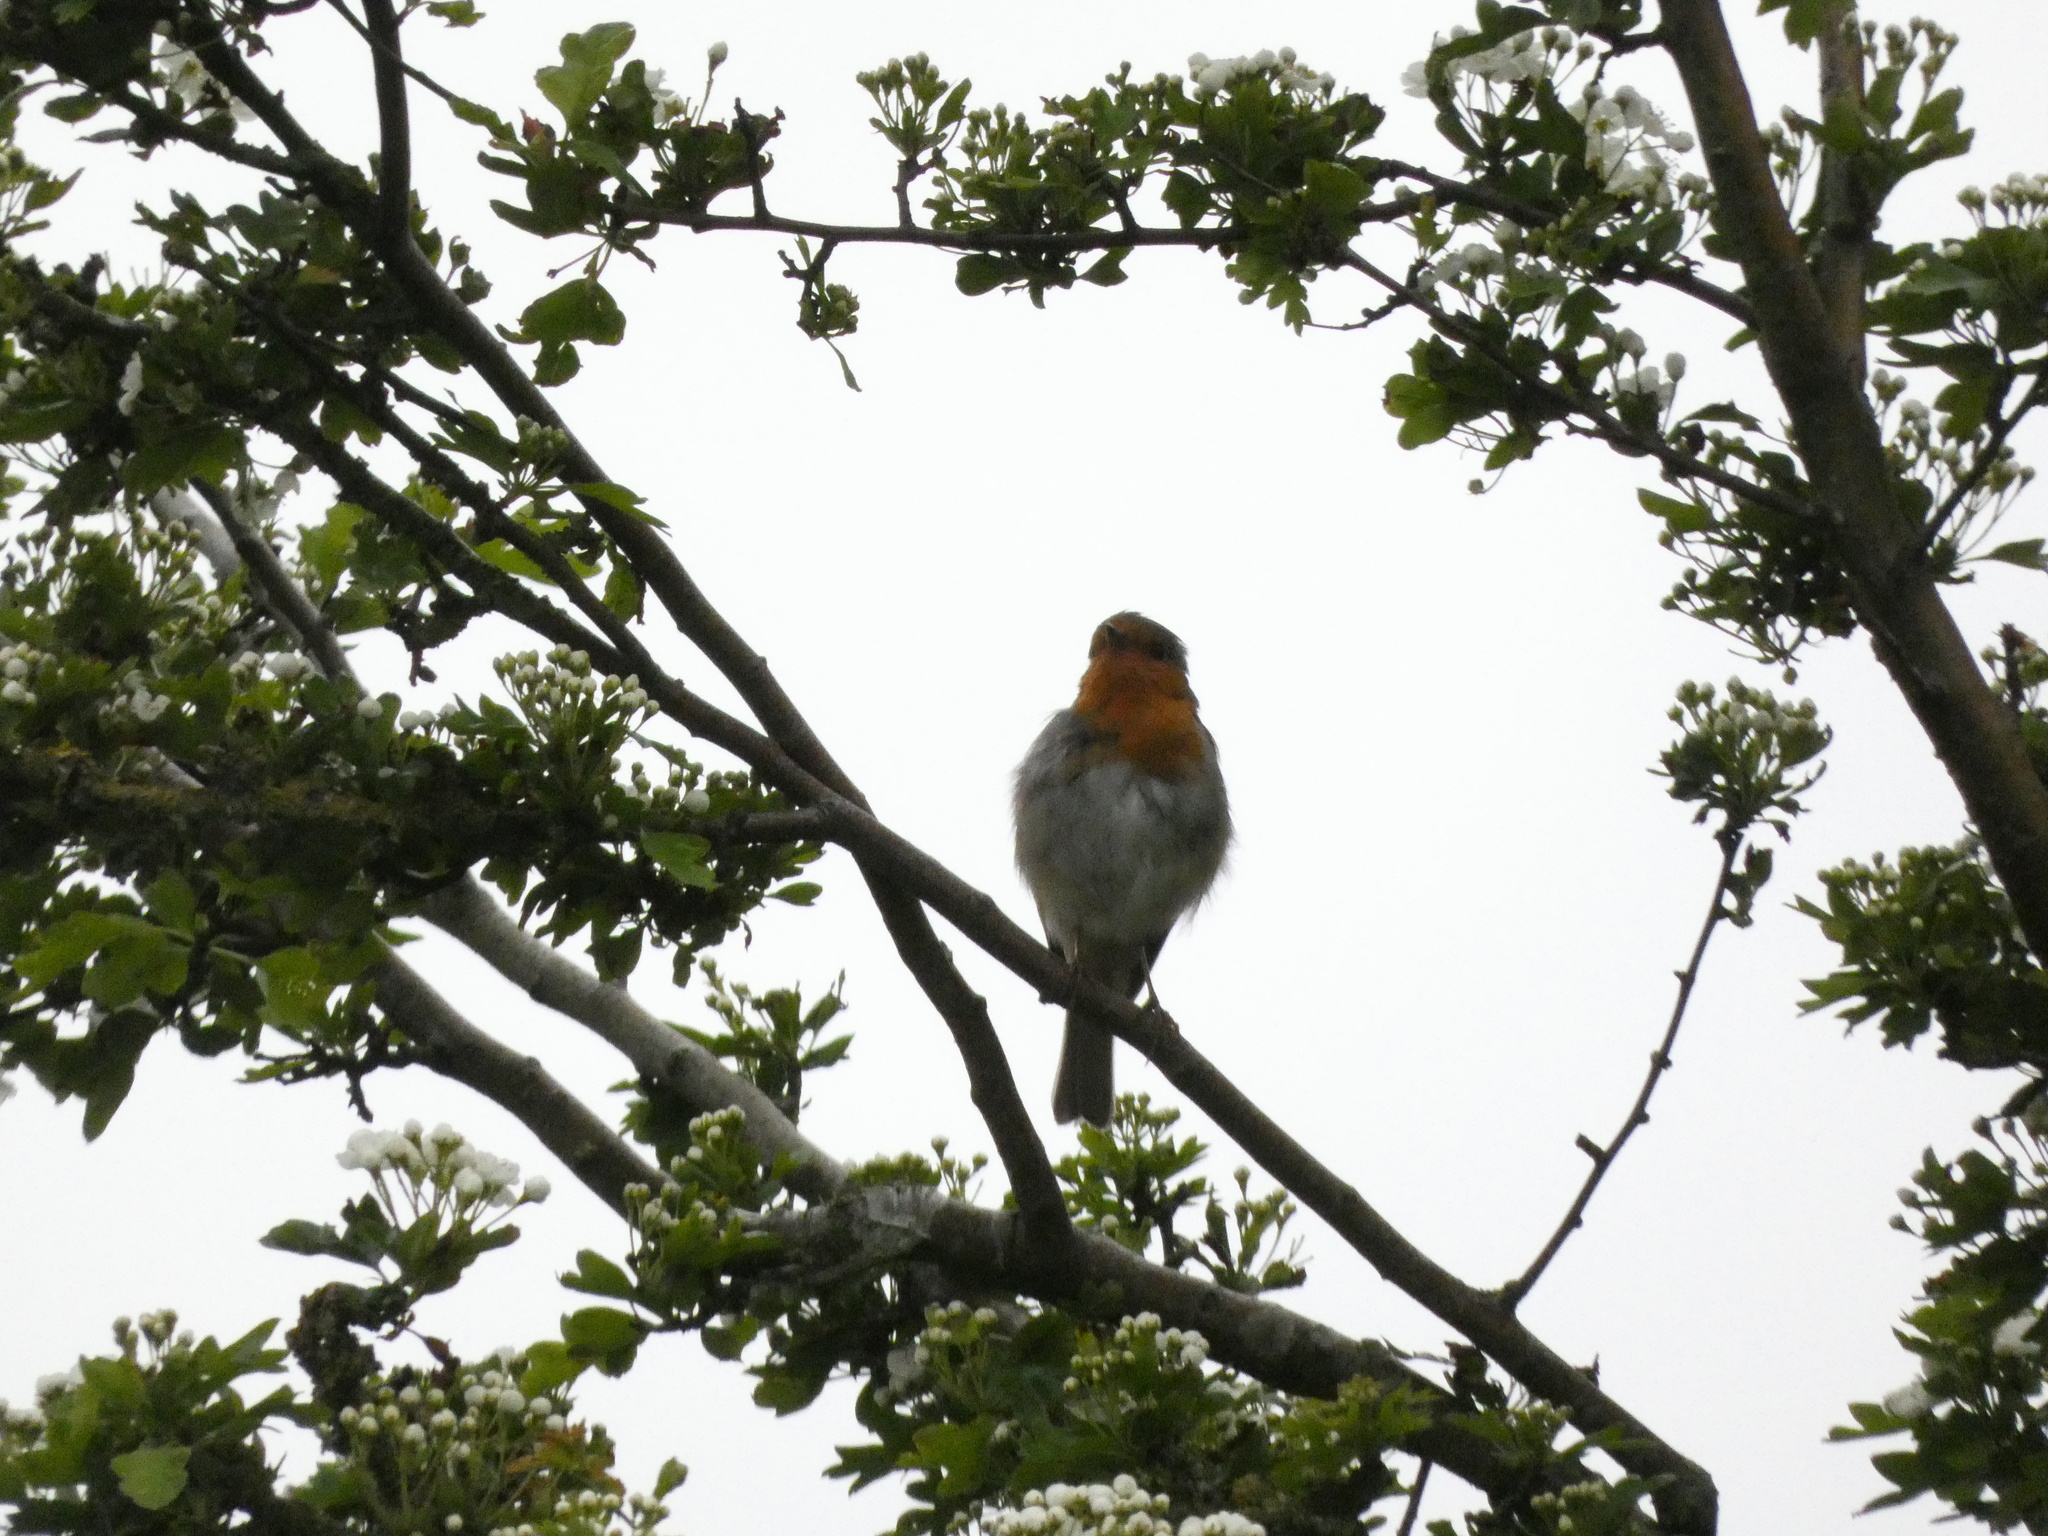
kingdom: Animalia
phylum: Chordata
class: Aves
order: Passeriformes
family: Muscicapidae
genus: Erithacus
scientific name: Erithacus rubecula
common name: European robin
